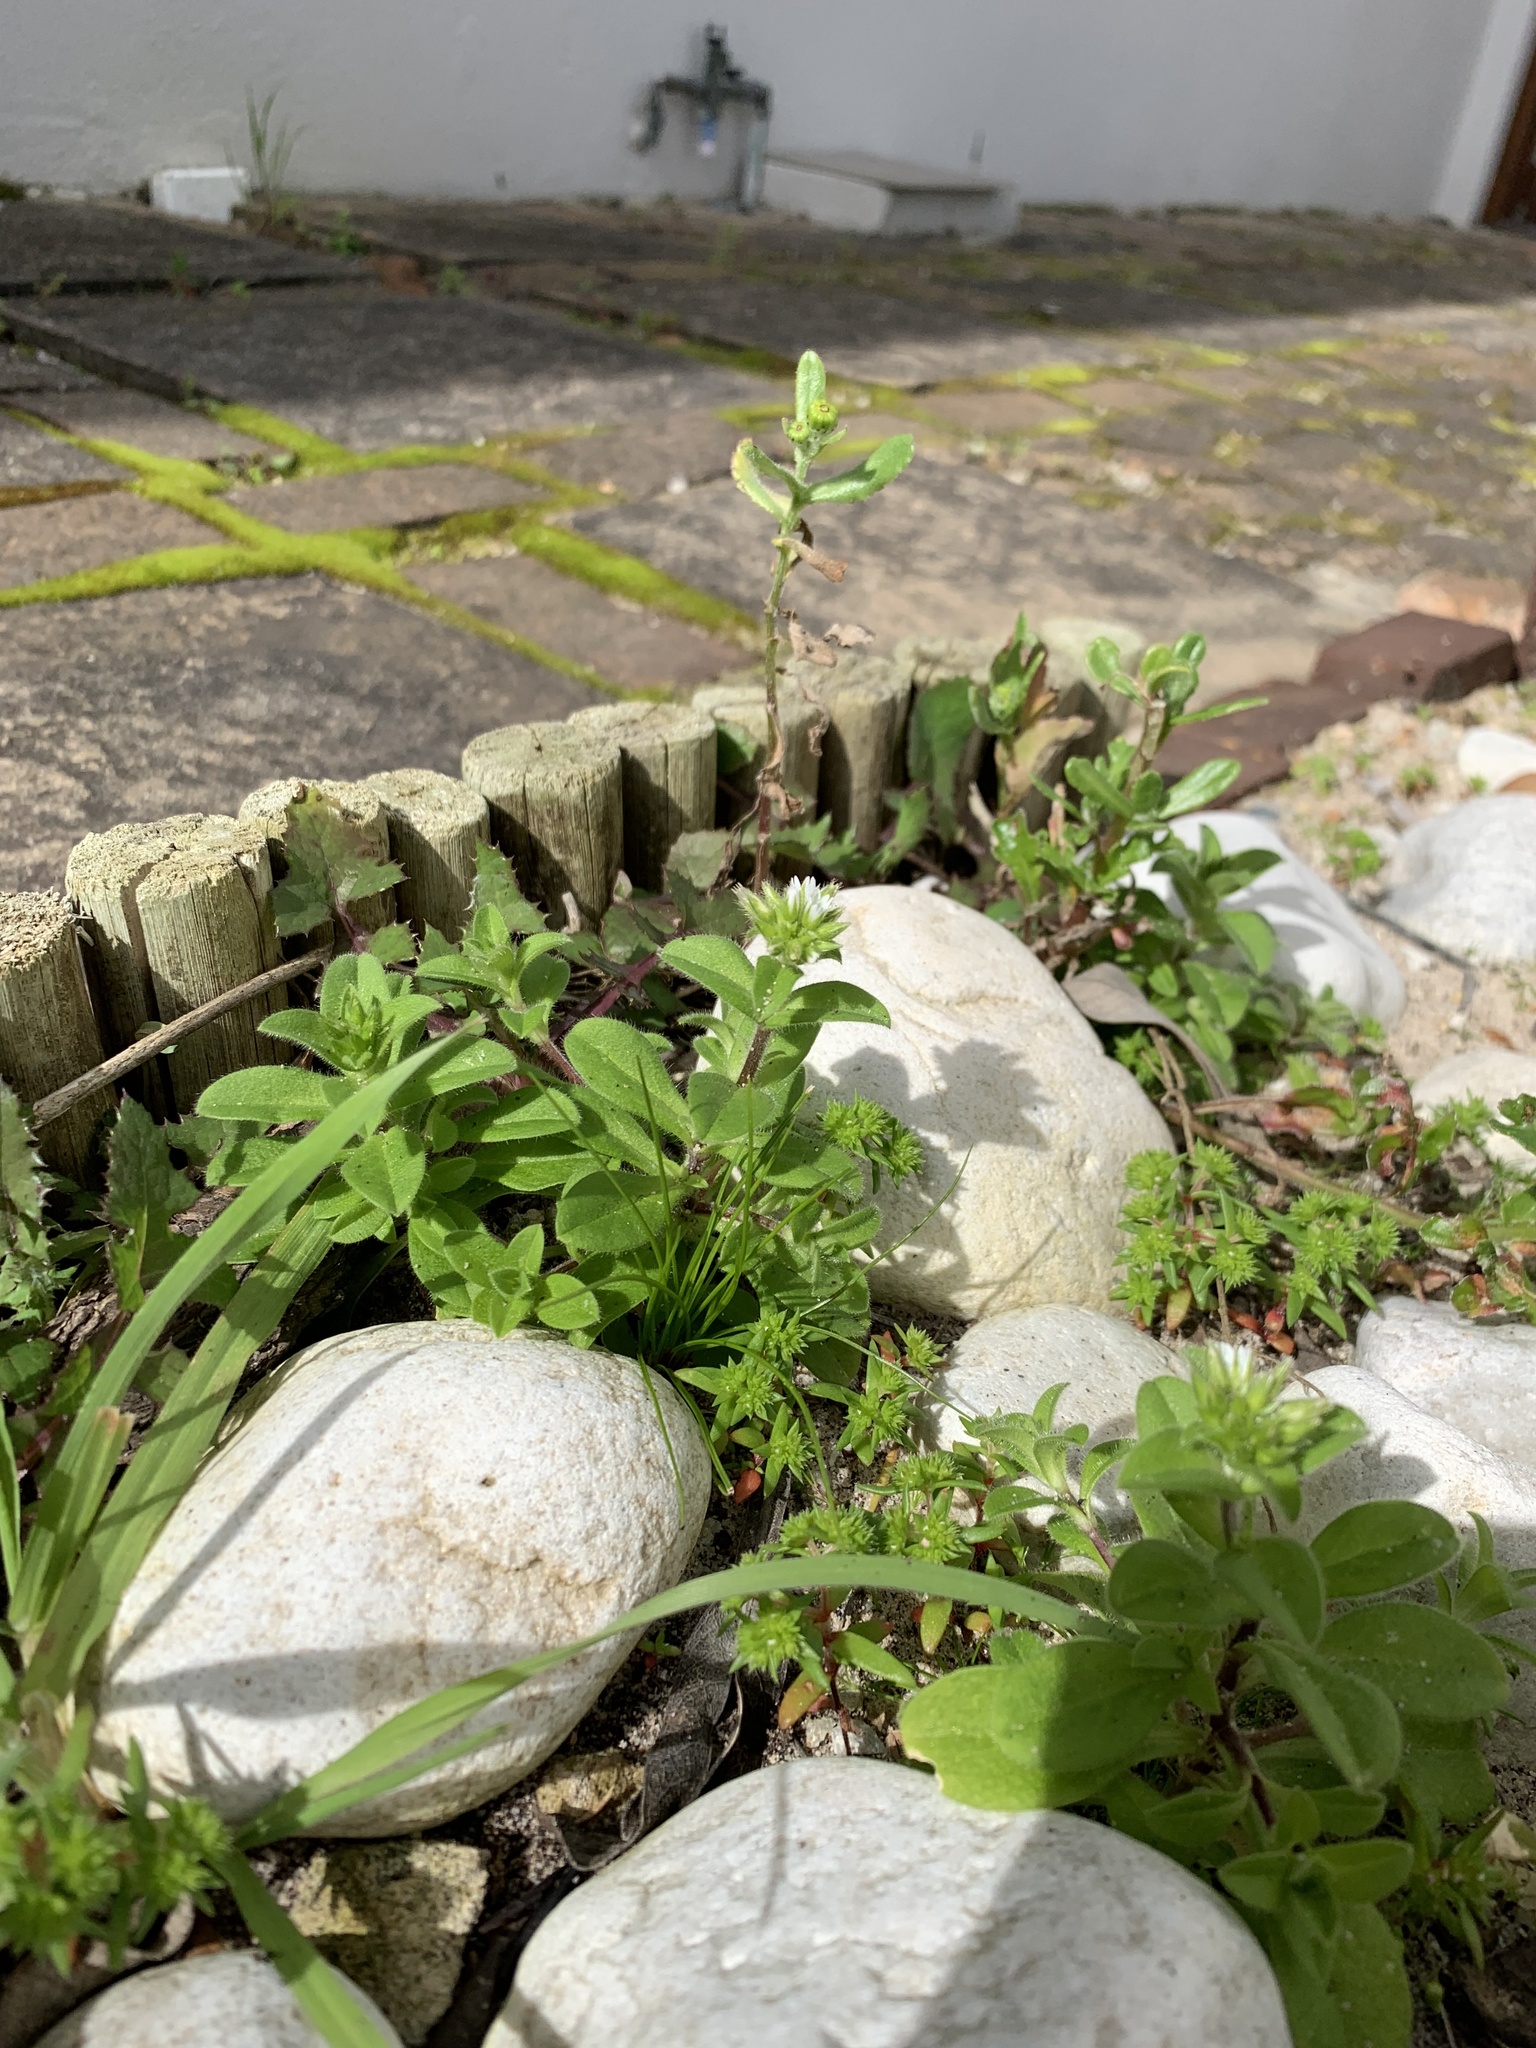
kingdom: Plantae
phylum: Tracheophyta
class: Magnoliopsida
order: Caryophyllales
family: Caryophyllaceae
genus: Cerastium
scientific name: Cerastium glomeratum
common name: Sticky chickweed
